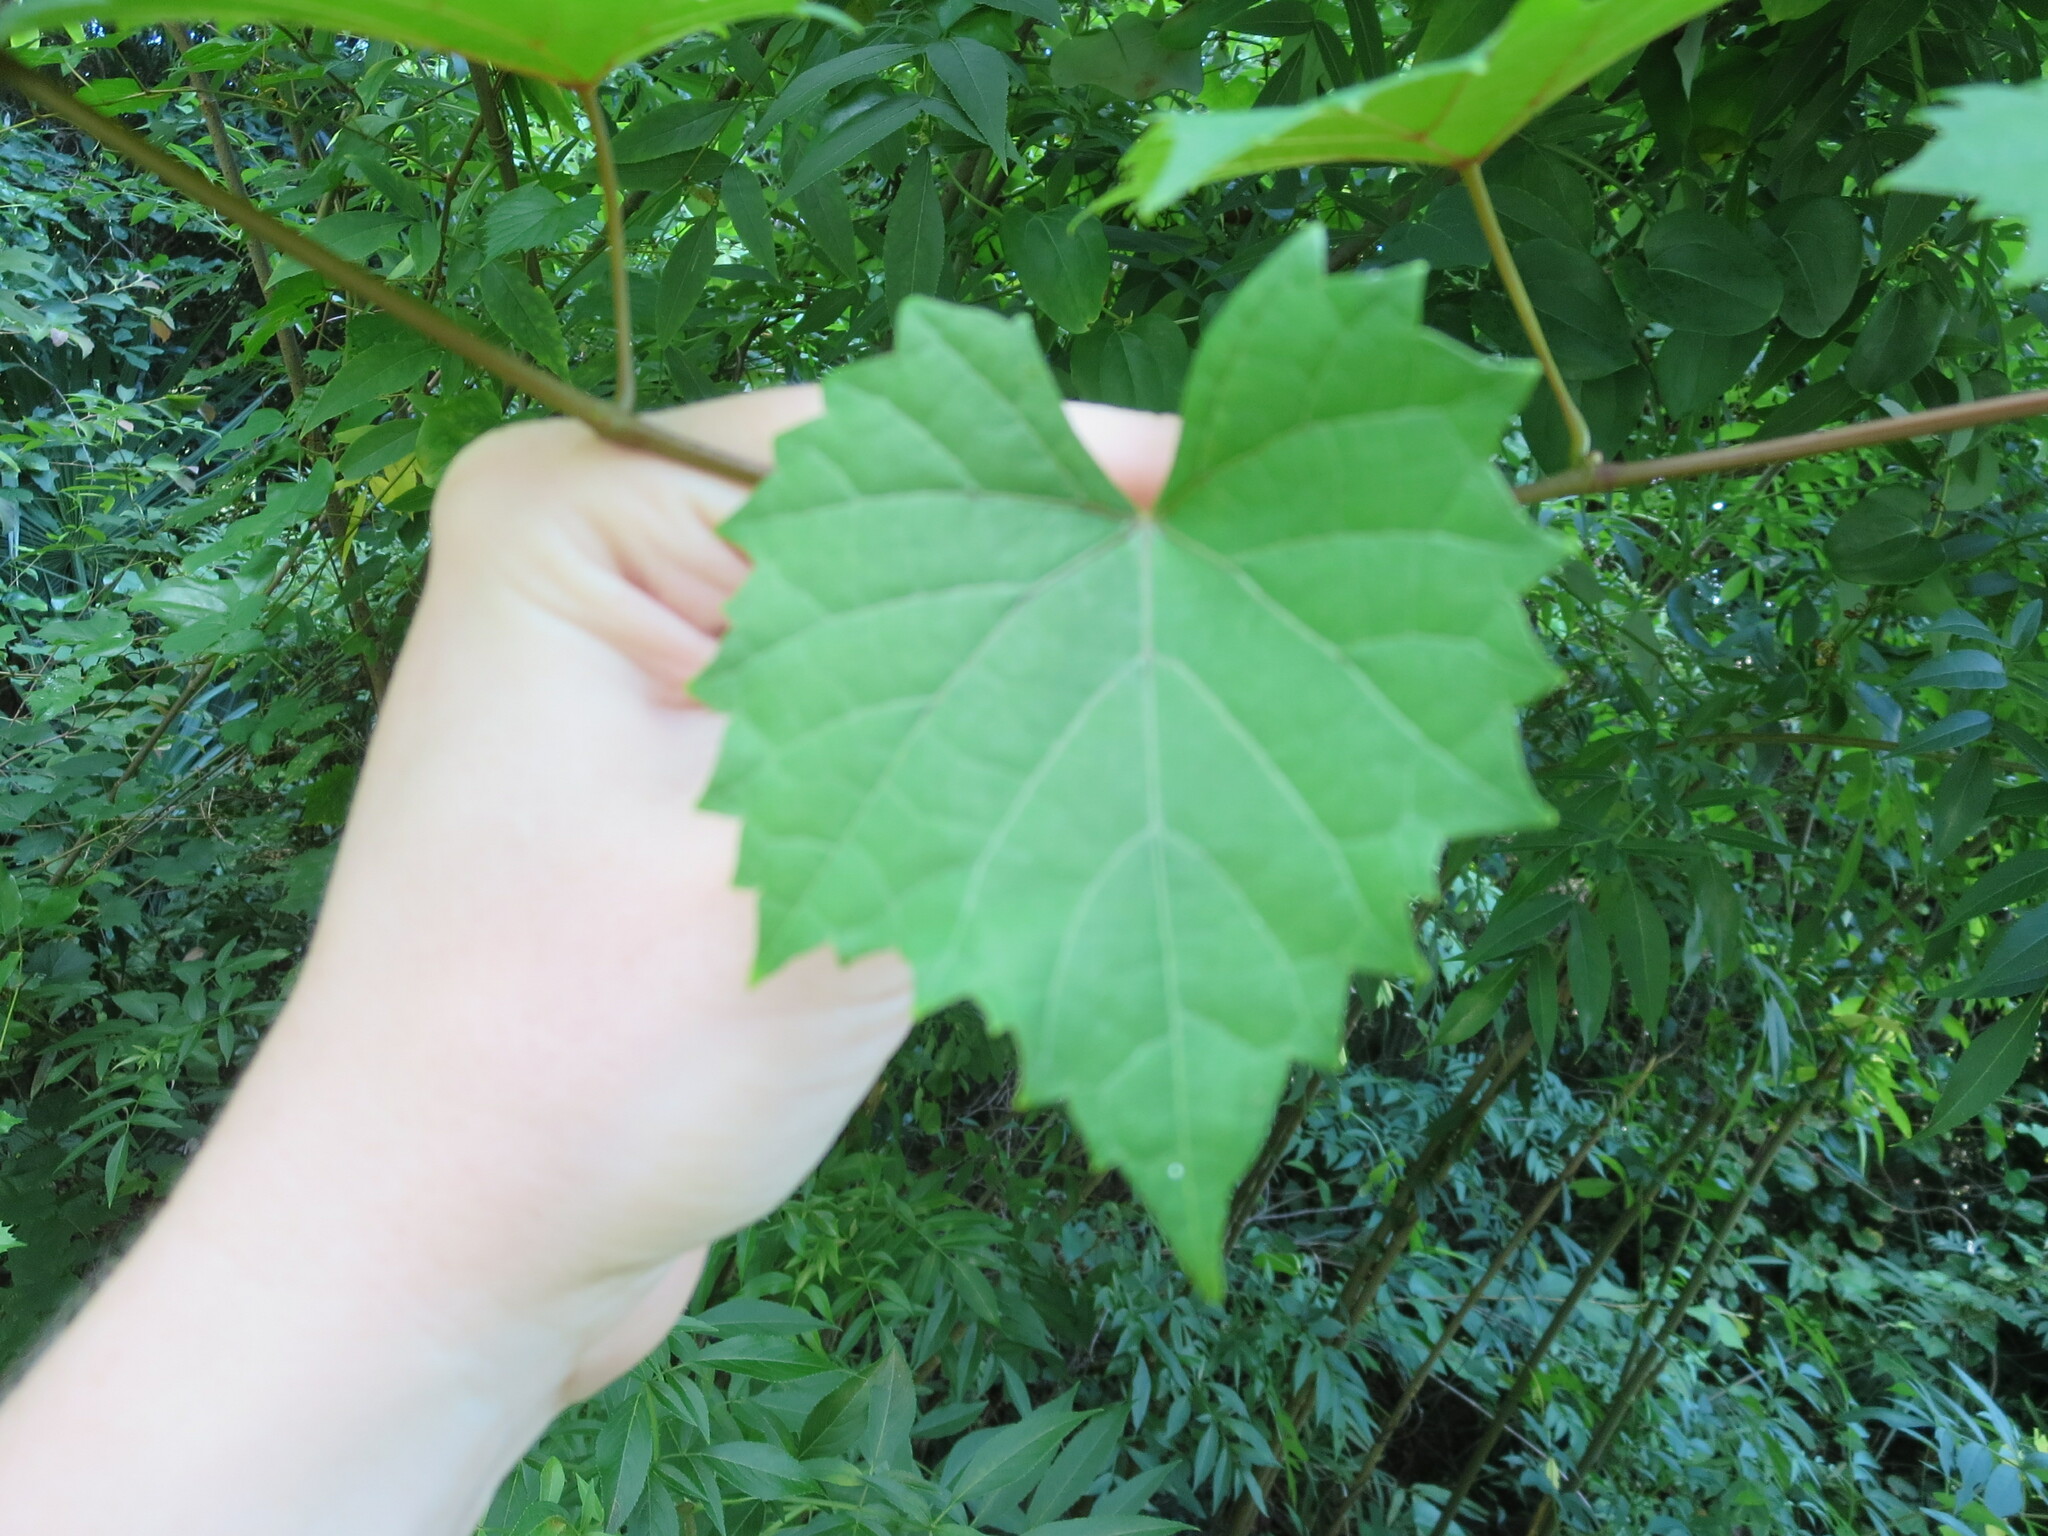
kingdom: Plantae
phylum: Tracheophyta
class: Magnoliopsida
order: Vitales
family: Vitaceae
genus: Vitis
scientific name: Vitis rotundifolia
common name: Muscadine grape
